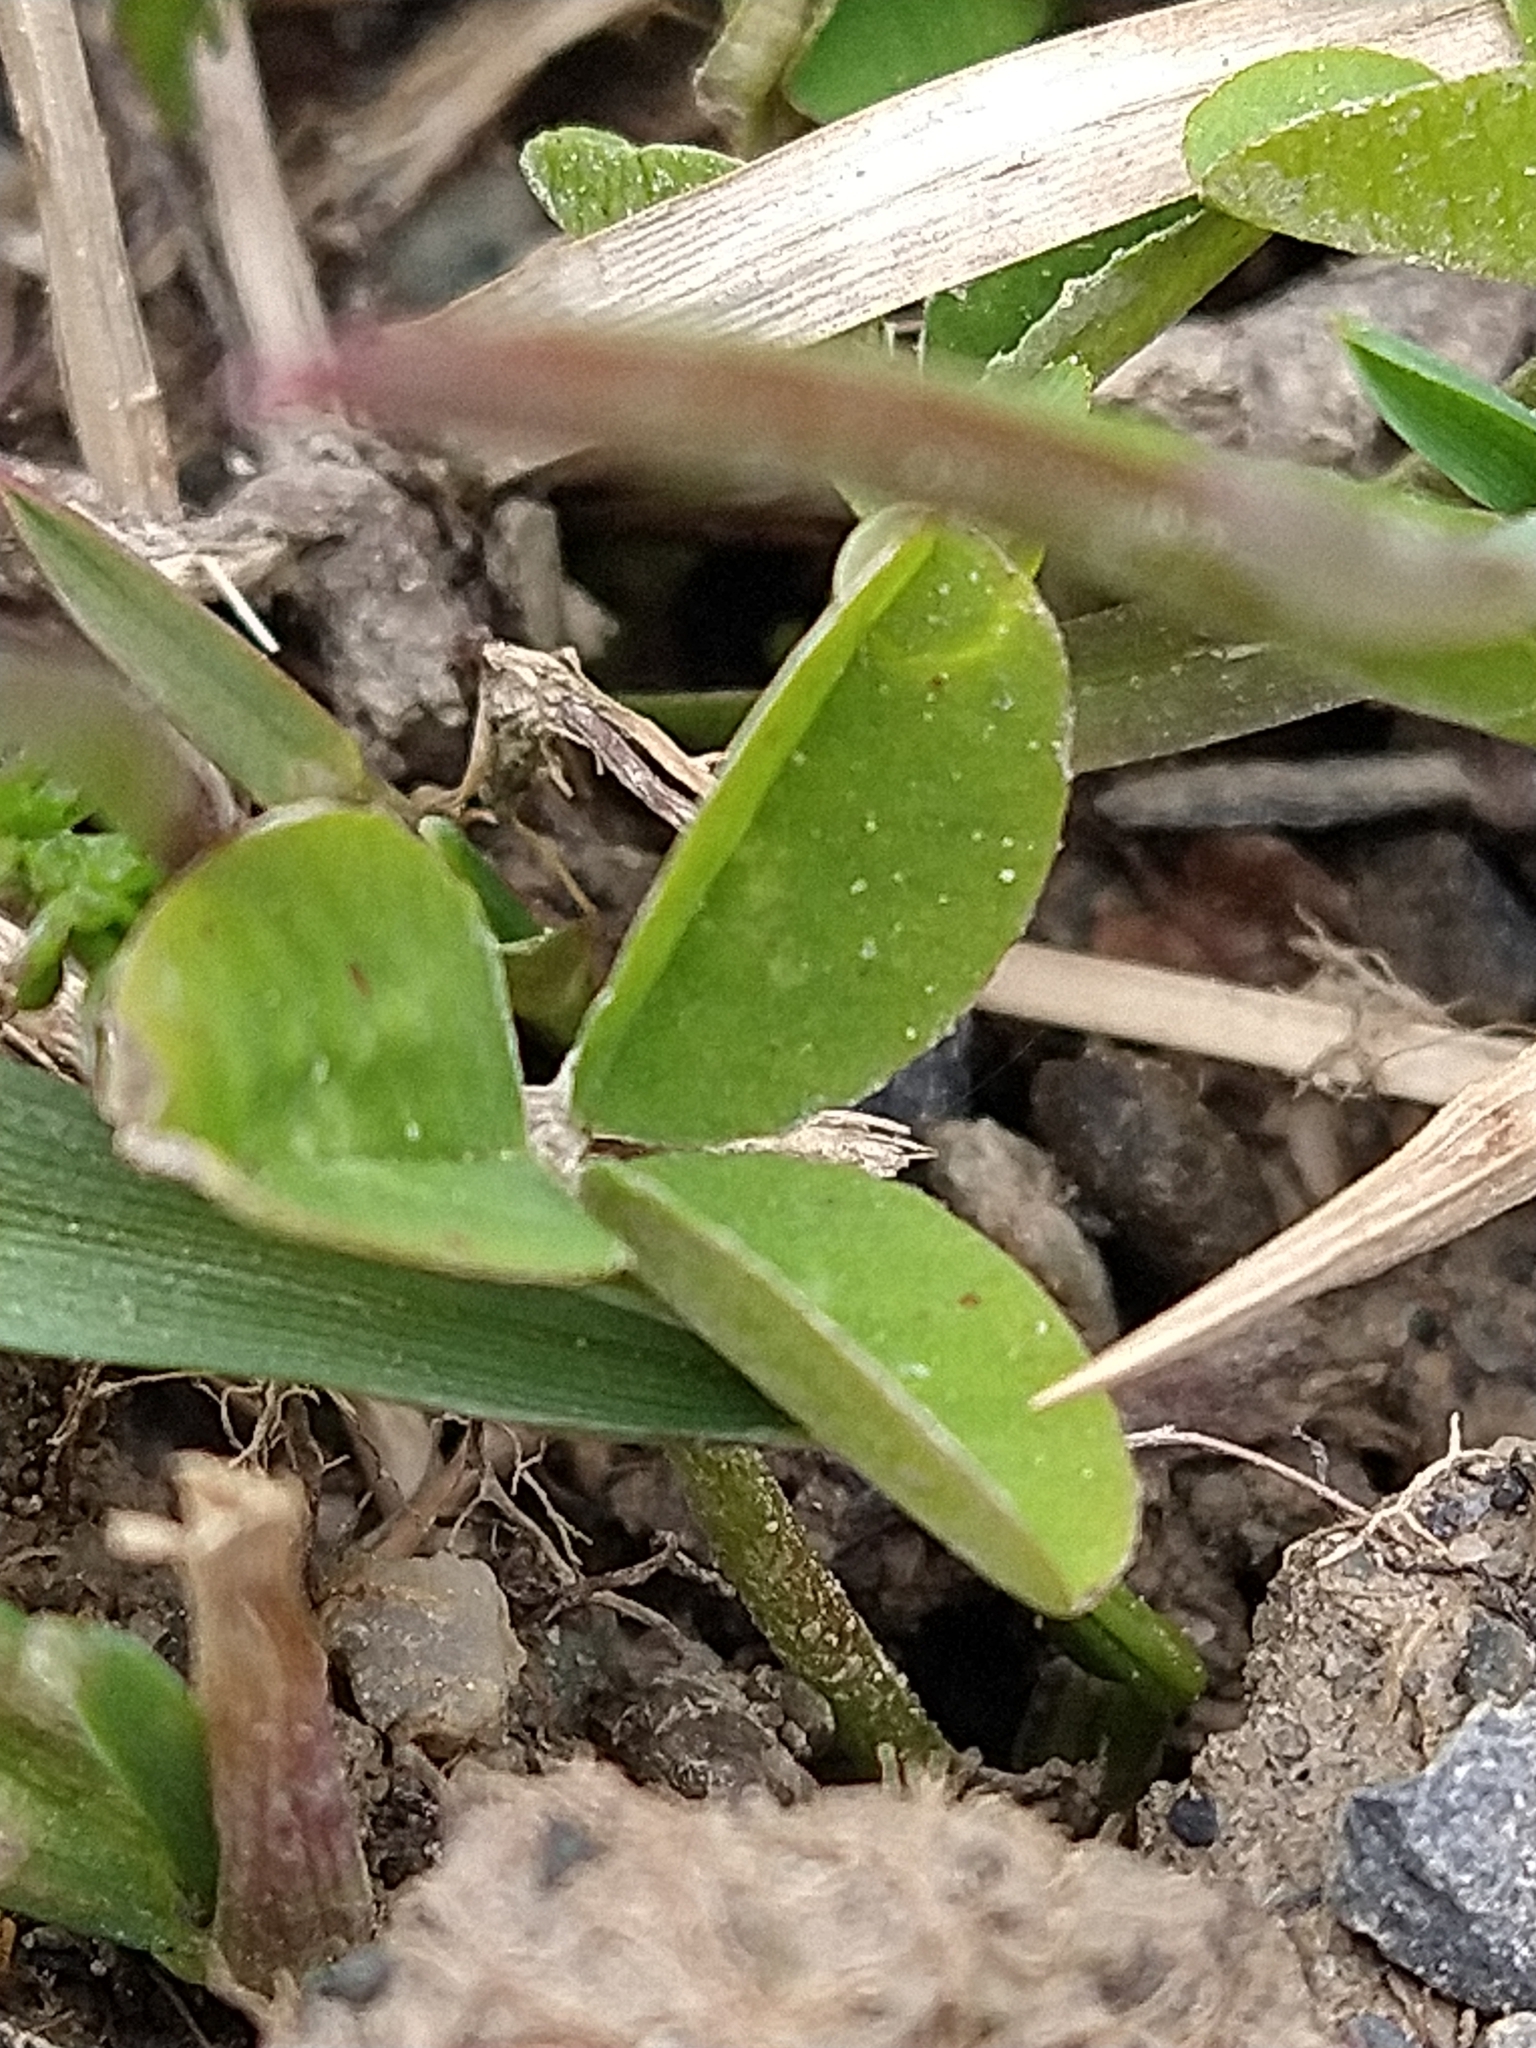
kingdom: Plantae
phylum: Tracheophyta
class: Magnoliopsida
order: Fabales
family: Fabaceae
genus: Trifolium
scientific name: Trifolium repens
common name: White clover
